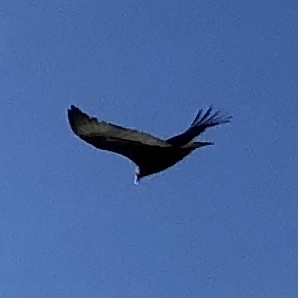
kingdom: Animalia
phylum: Chordata
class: Aves
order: Accipitriformes
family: Cathartidae
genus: Cathartes
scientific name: Cathartes aura
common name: Turkey vulture
